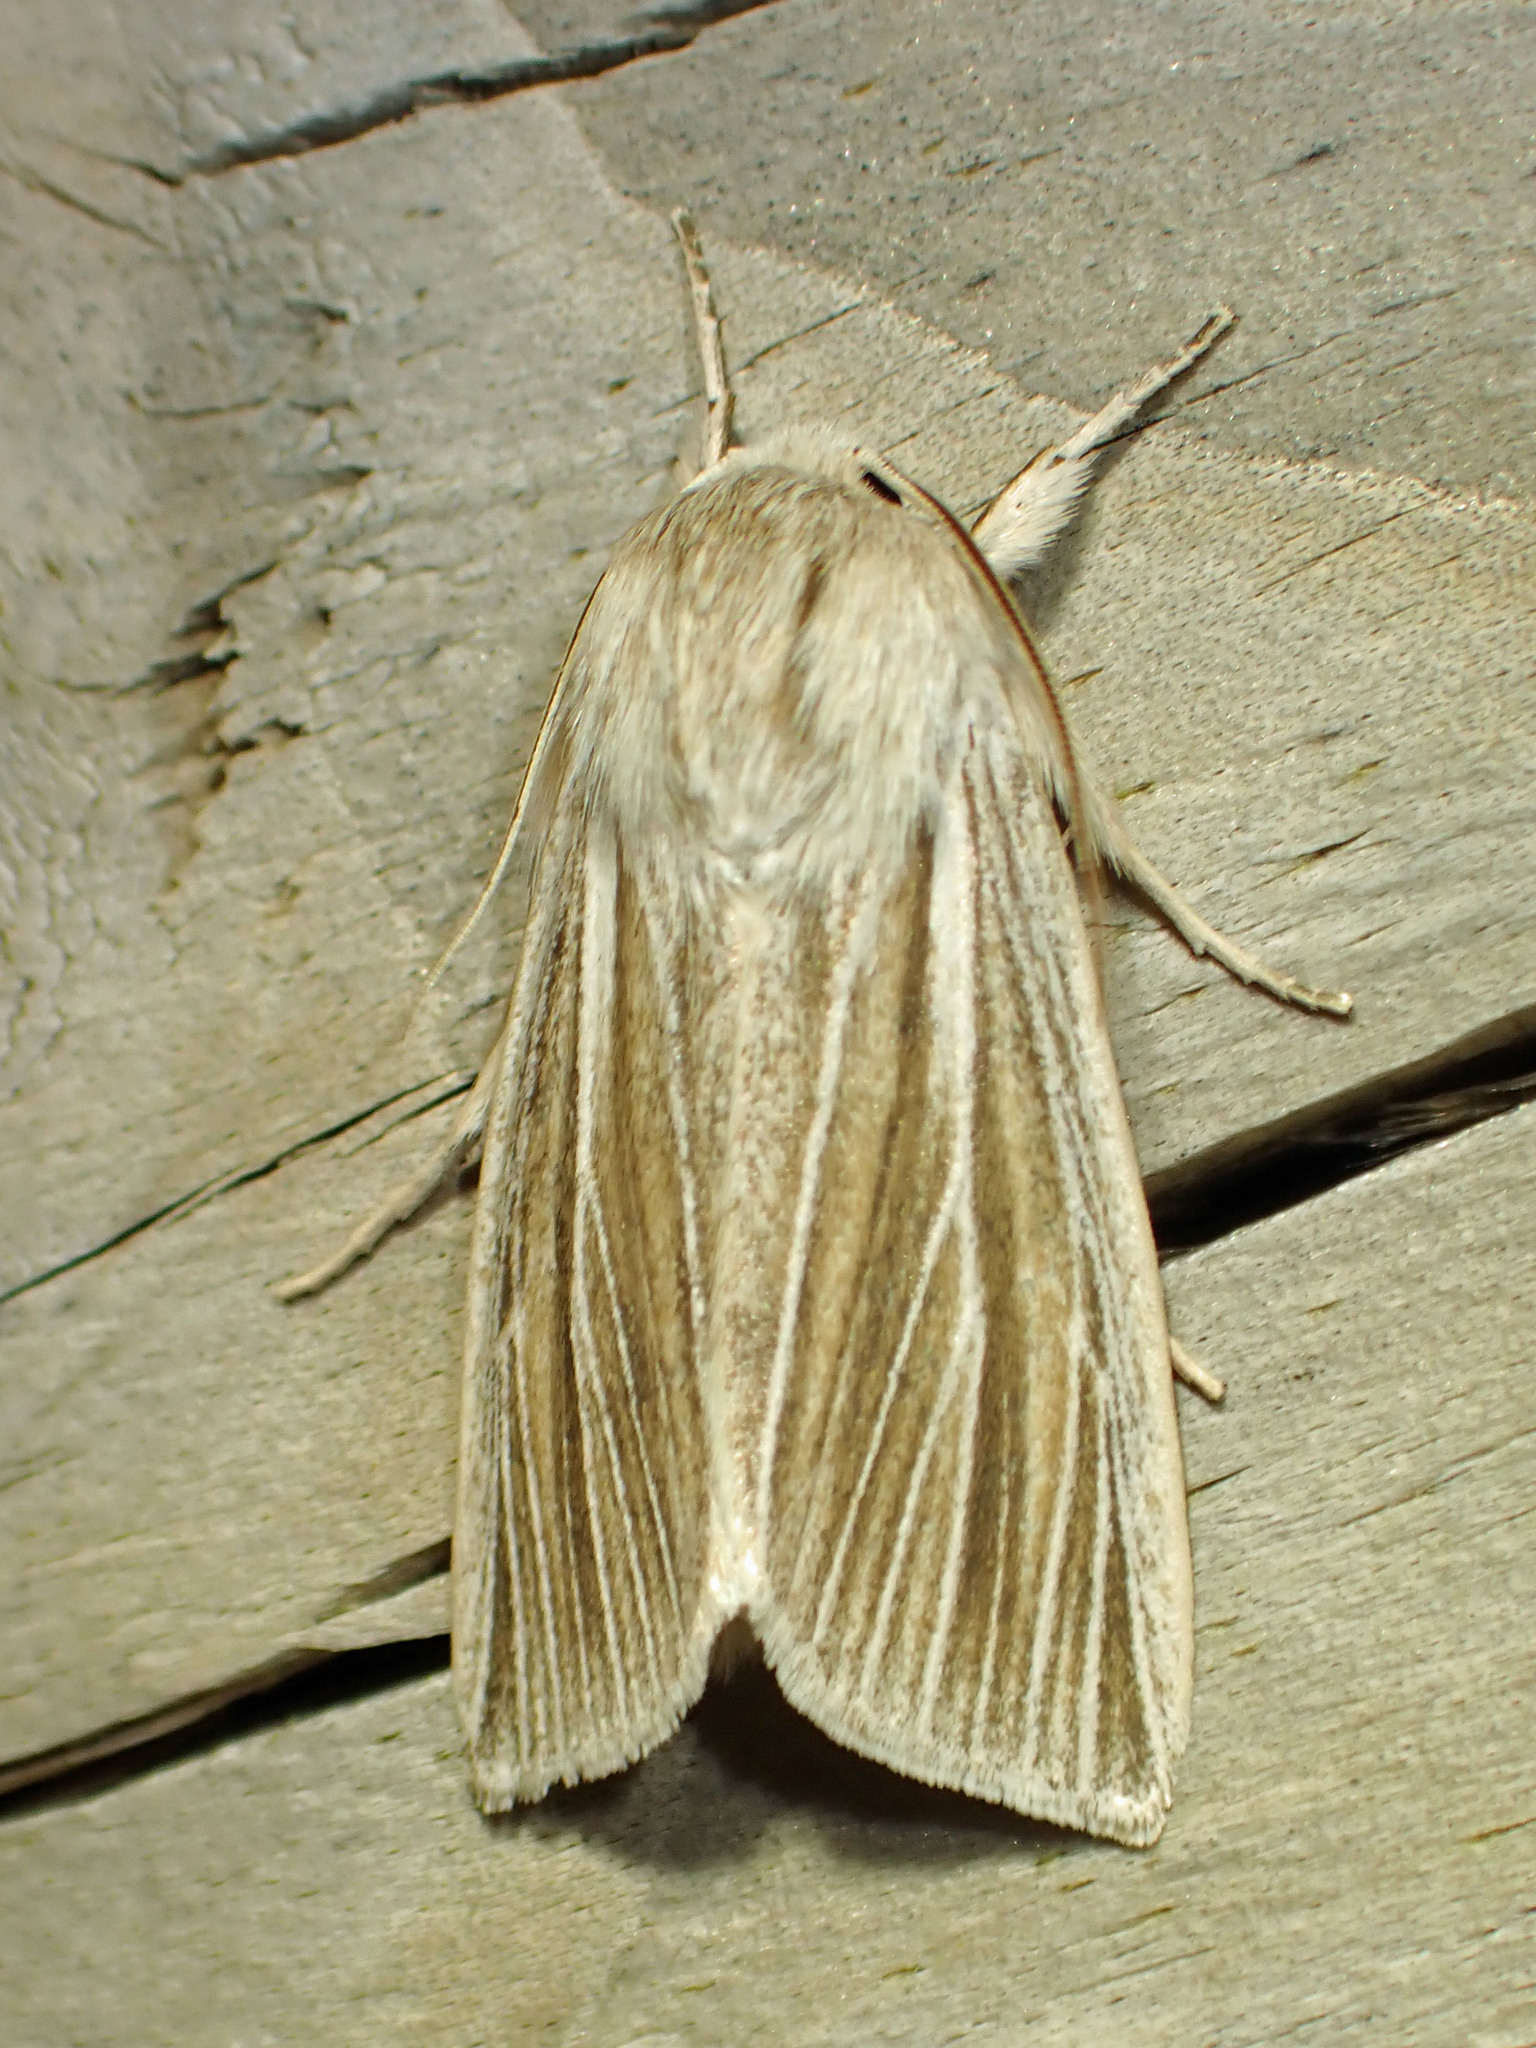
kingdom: Animalia
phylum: Arthropoda
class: Insecta
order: Lepidoptera
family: Noctuidae
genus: Acronicta
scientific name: Acronicta insularis
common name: Henry's marsh moth
